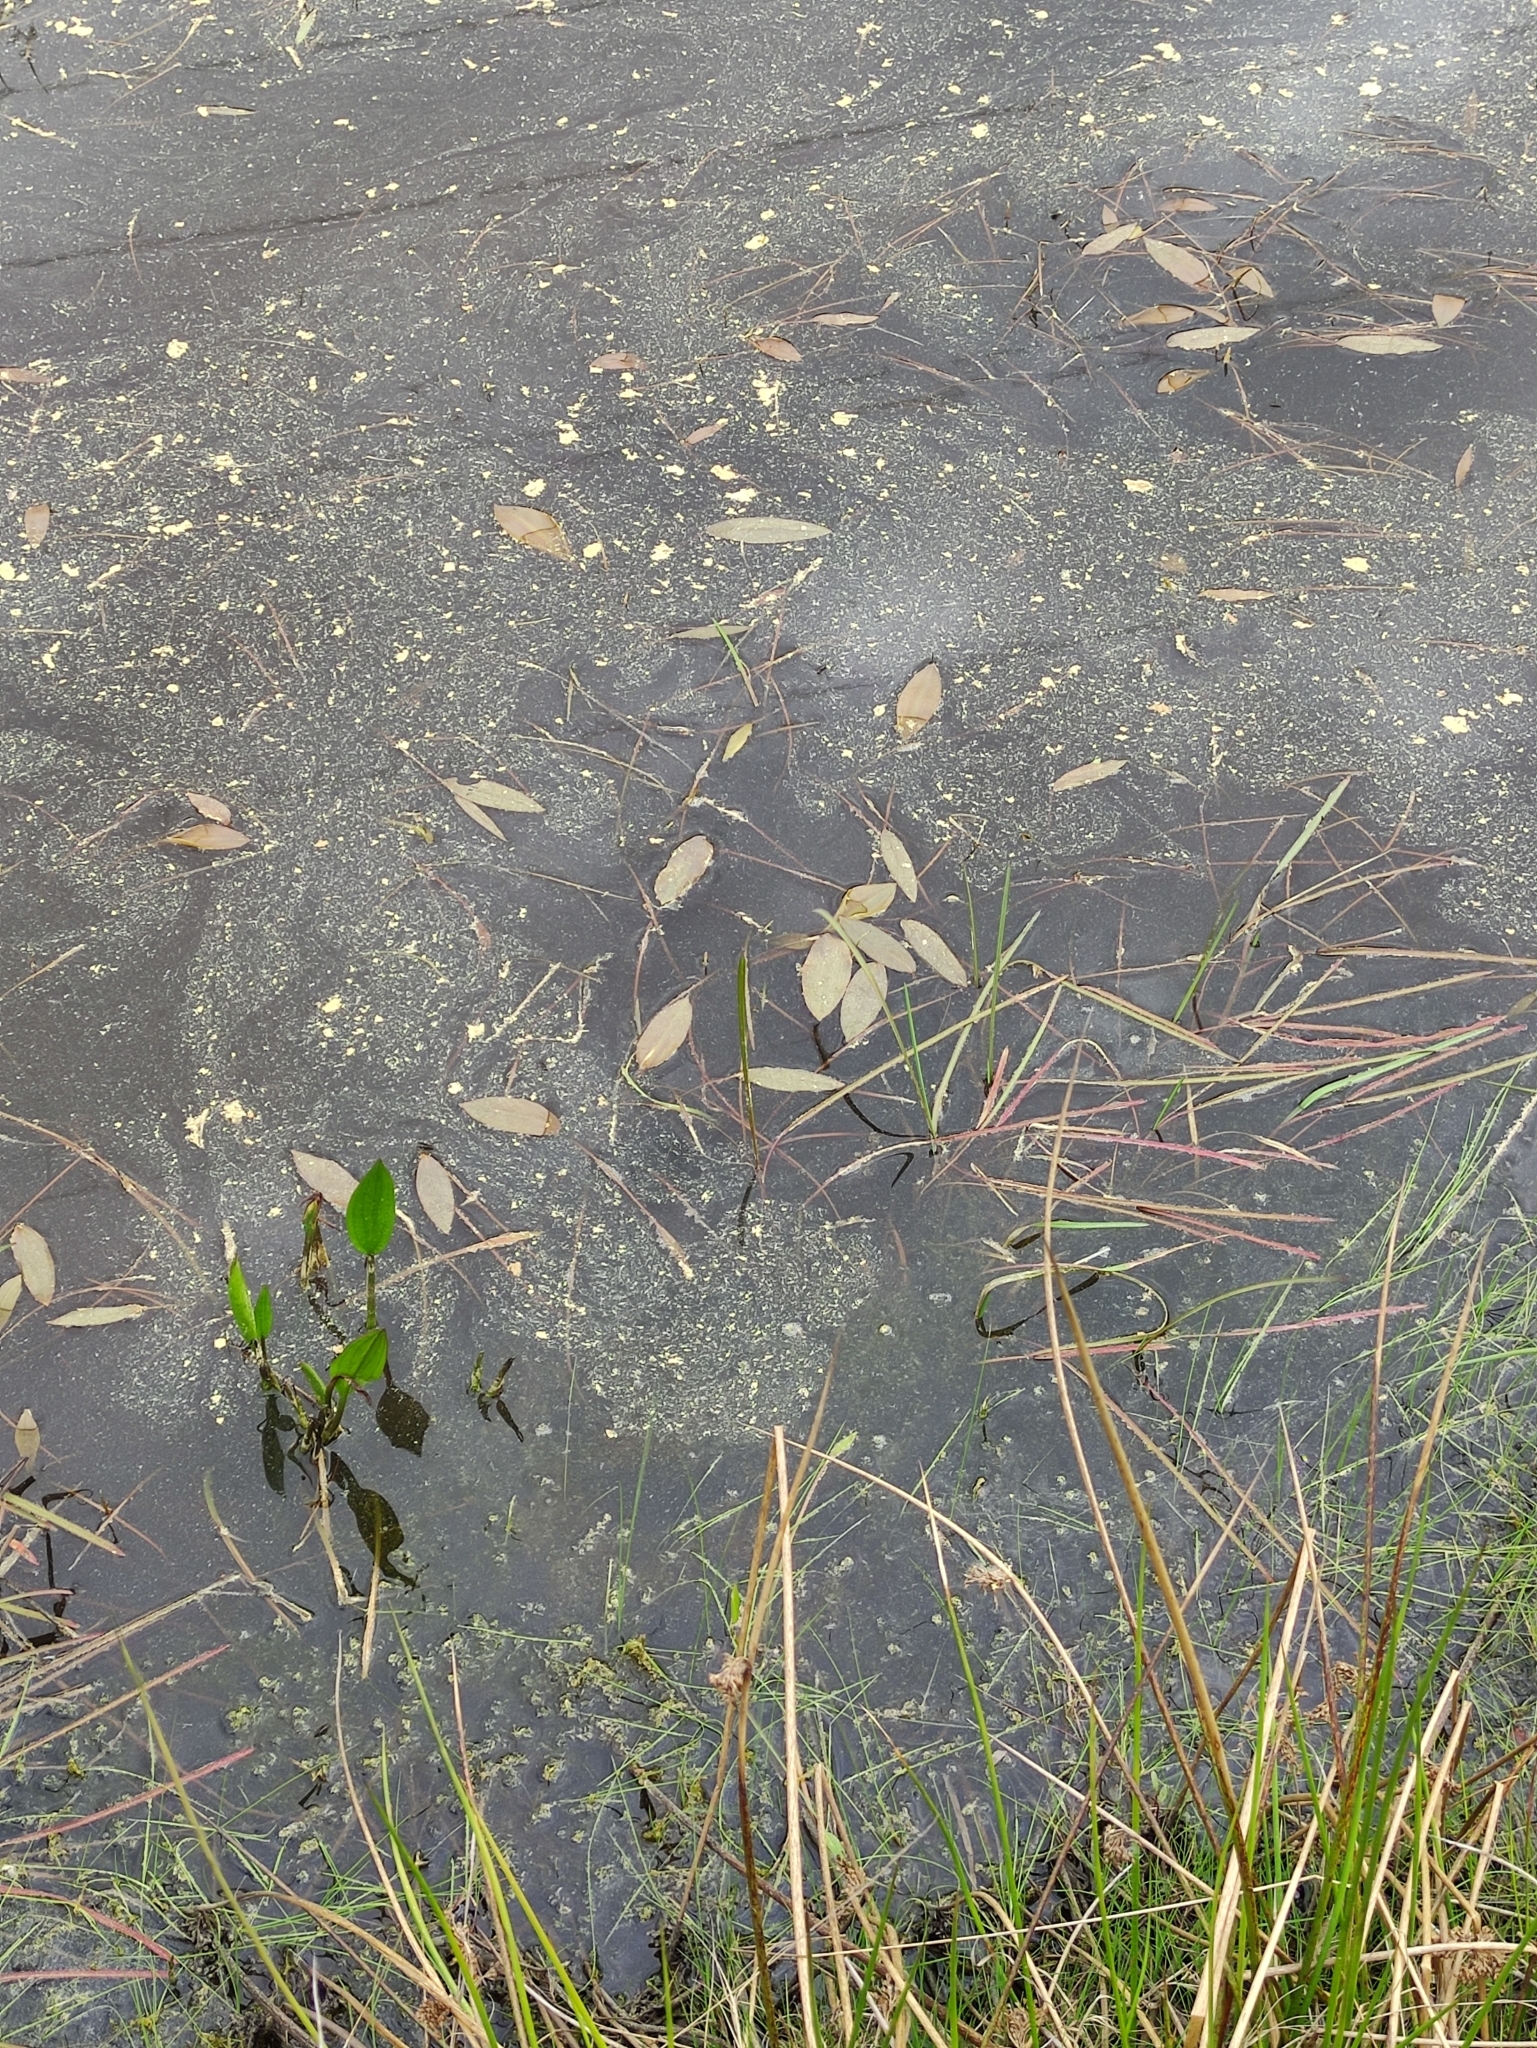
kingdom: Plantae
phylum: Tracheophyta
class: Liliopsida
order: Alismatales
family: Potamogetonaceae
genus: Potamogeton
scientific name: Potamogeton natans
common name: Broad-leaved pondweed
